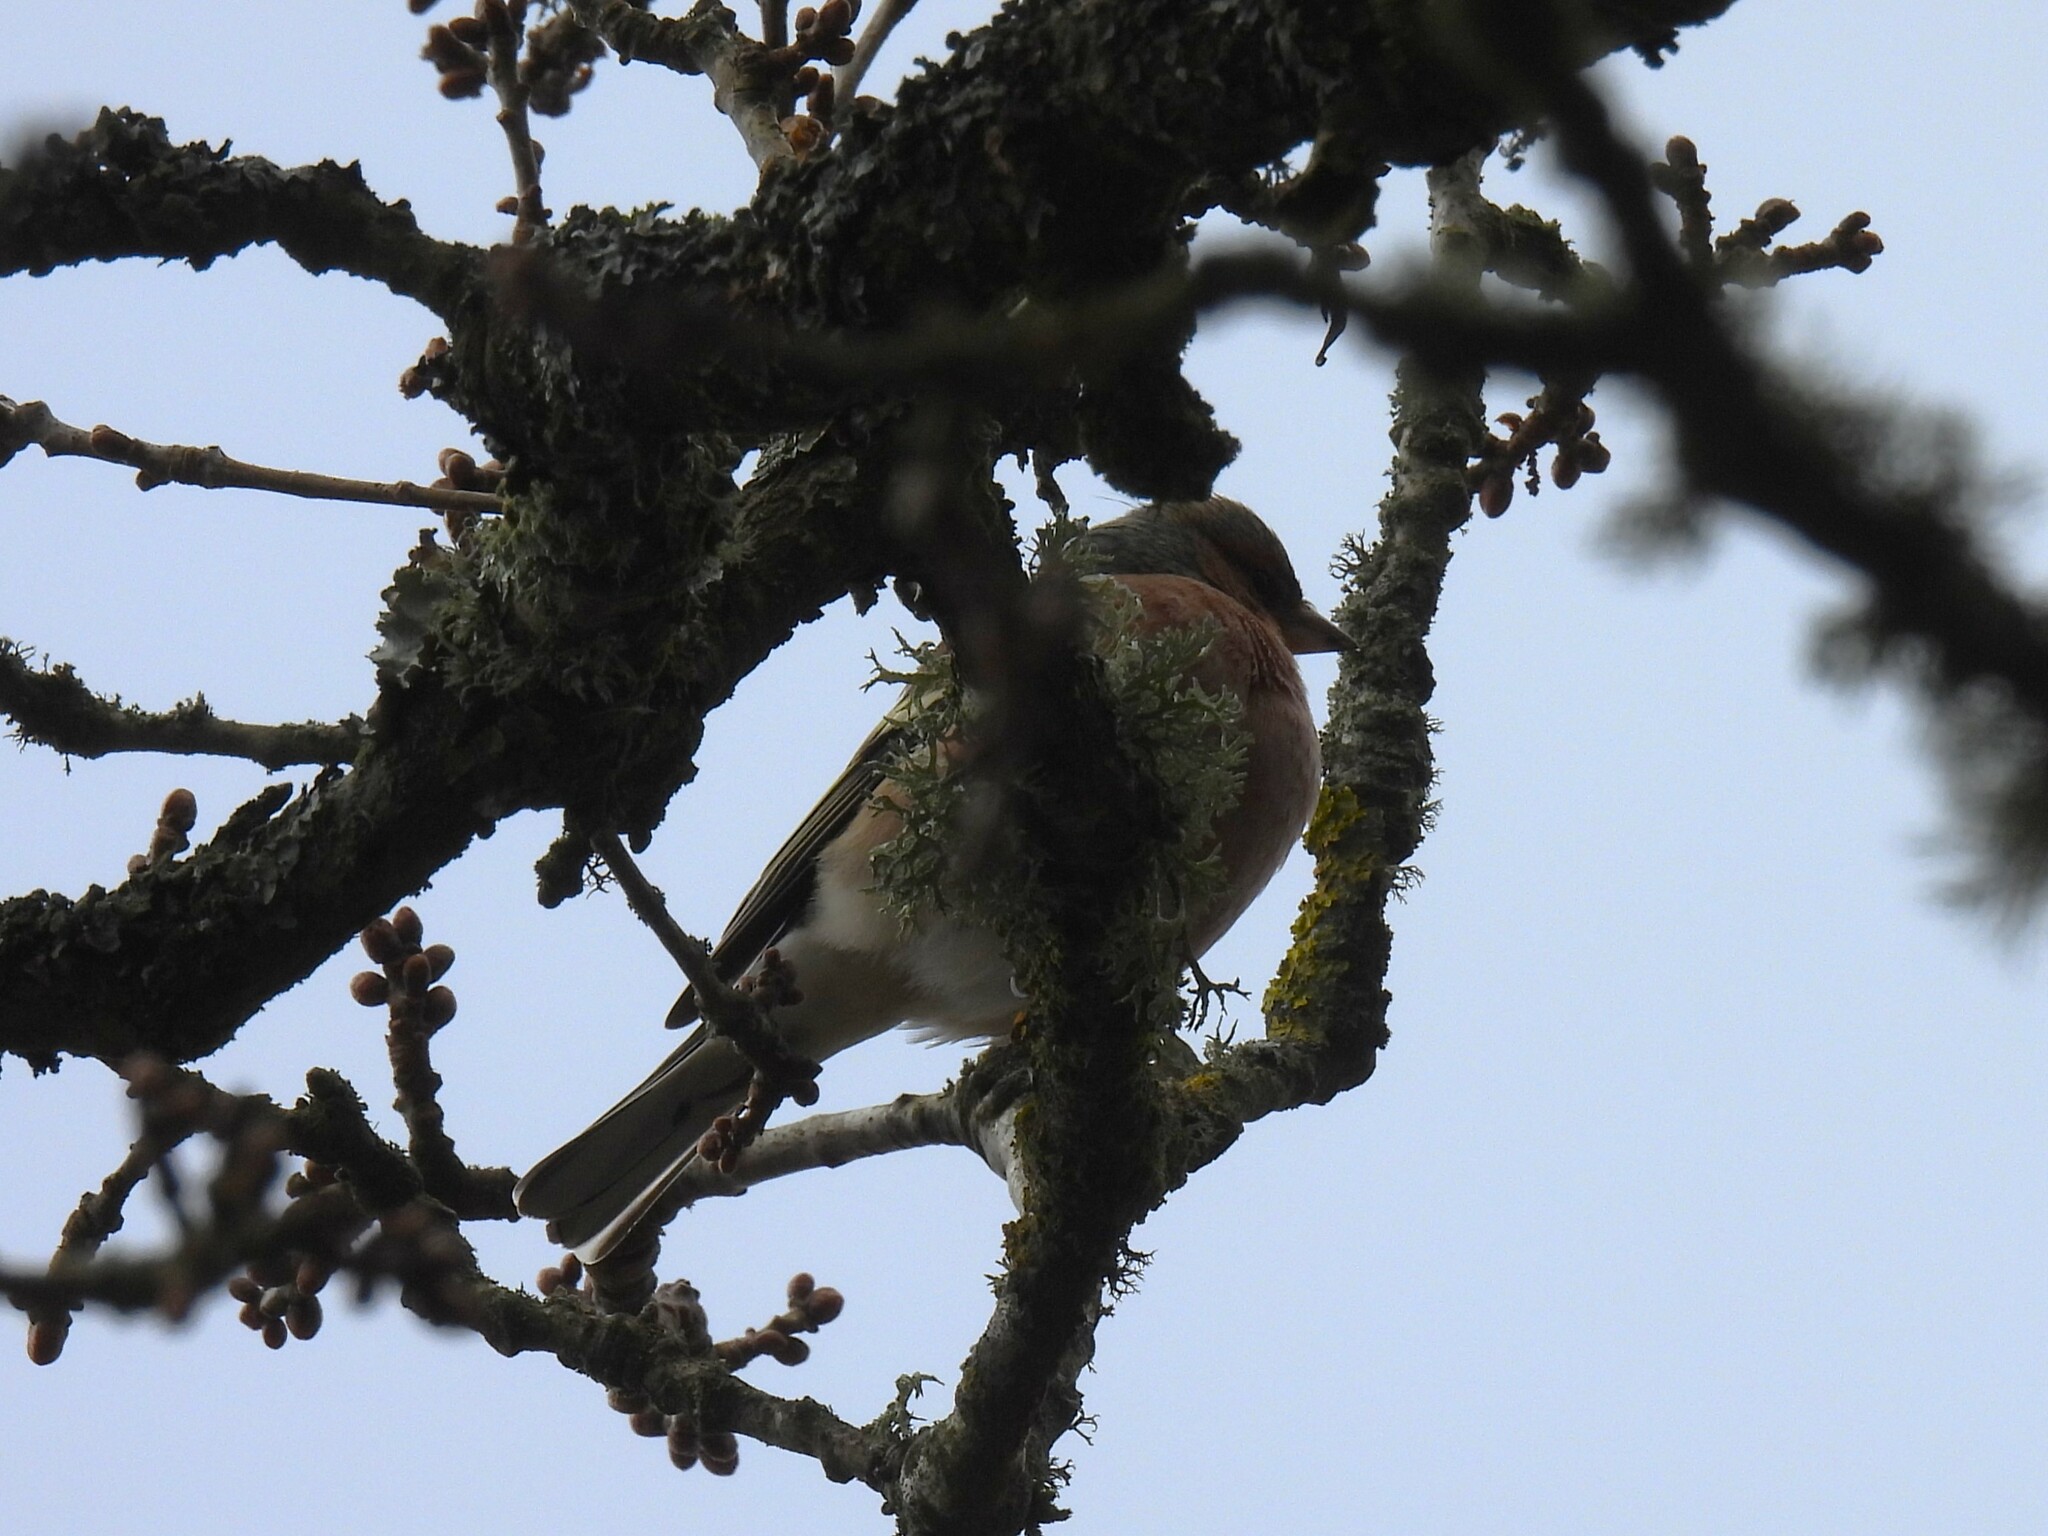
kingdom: Animalia
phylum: Chordata
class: Aves
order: Passeriformes
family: Fringillidae
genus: Fringilla
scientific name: Fringilla coelebs
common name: Common chaffinch
